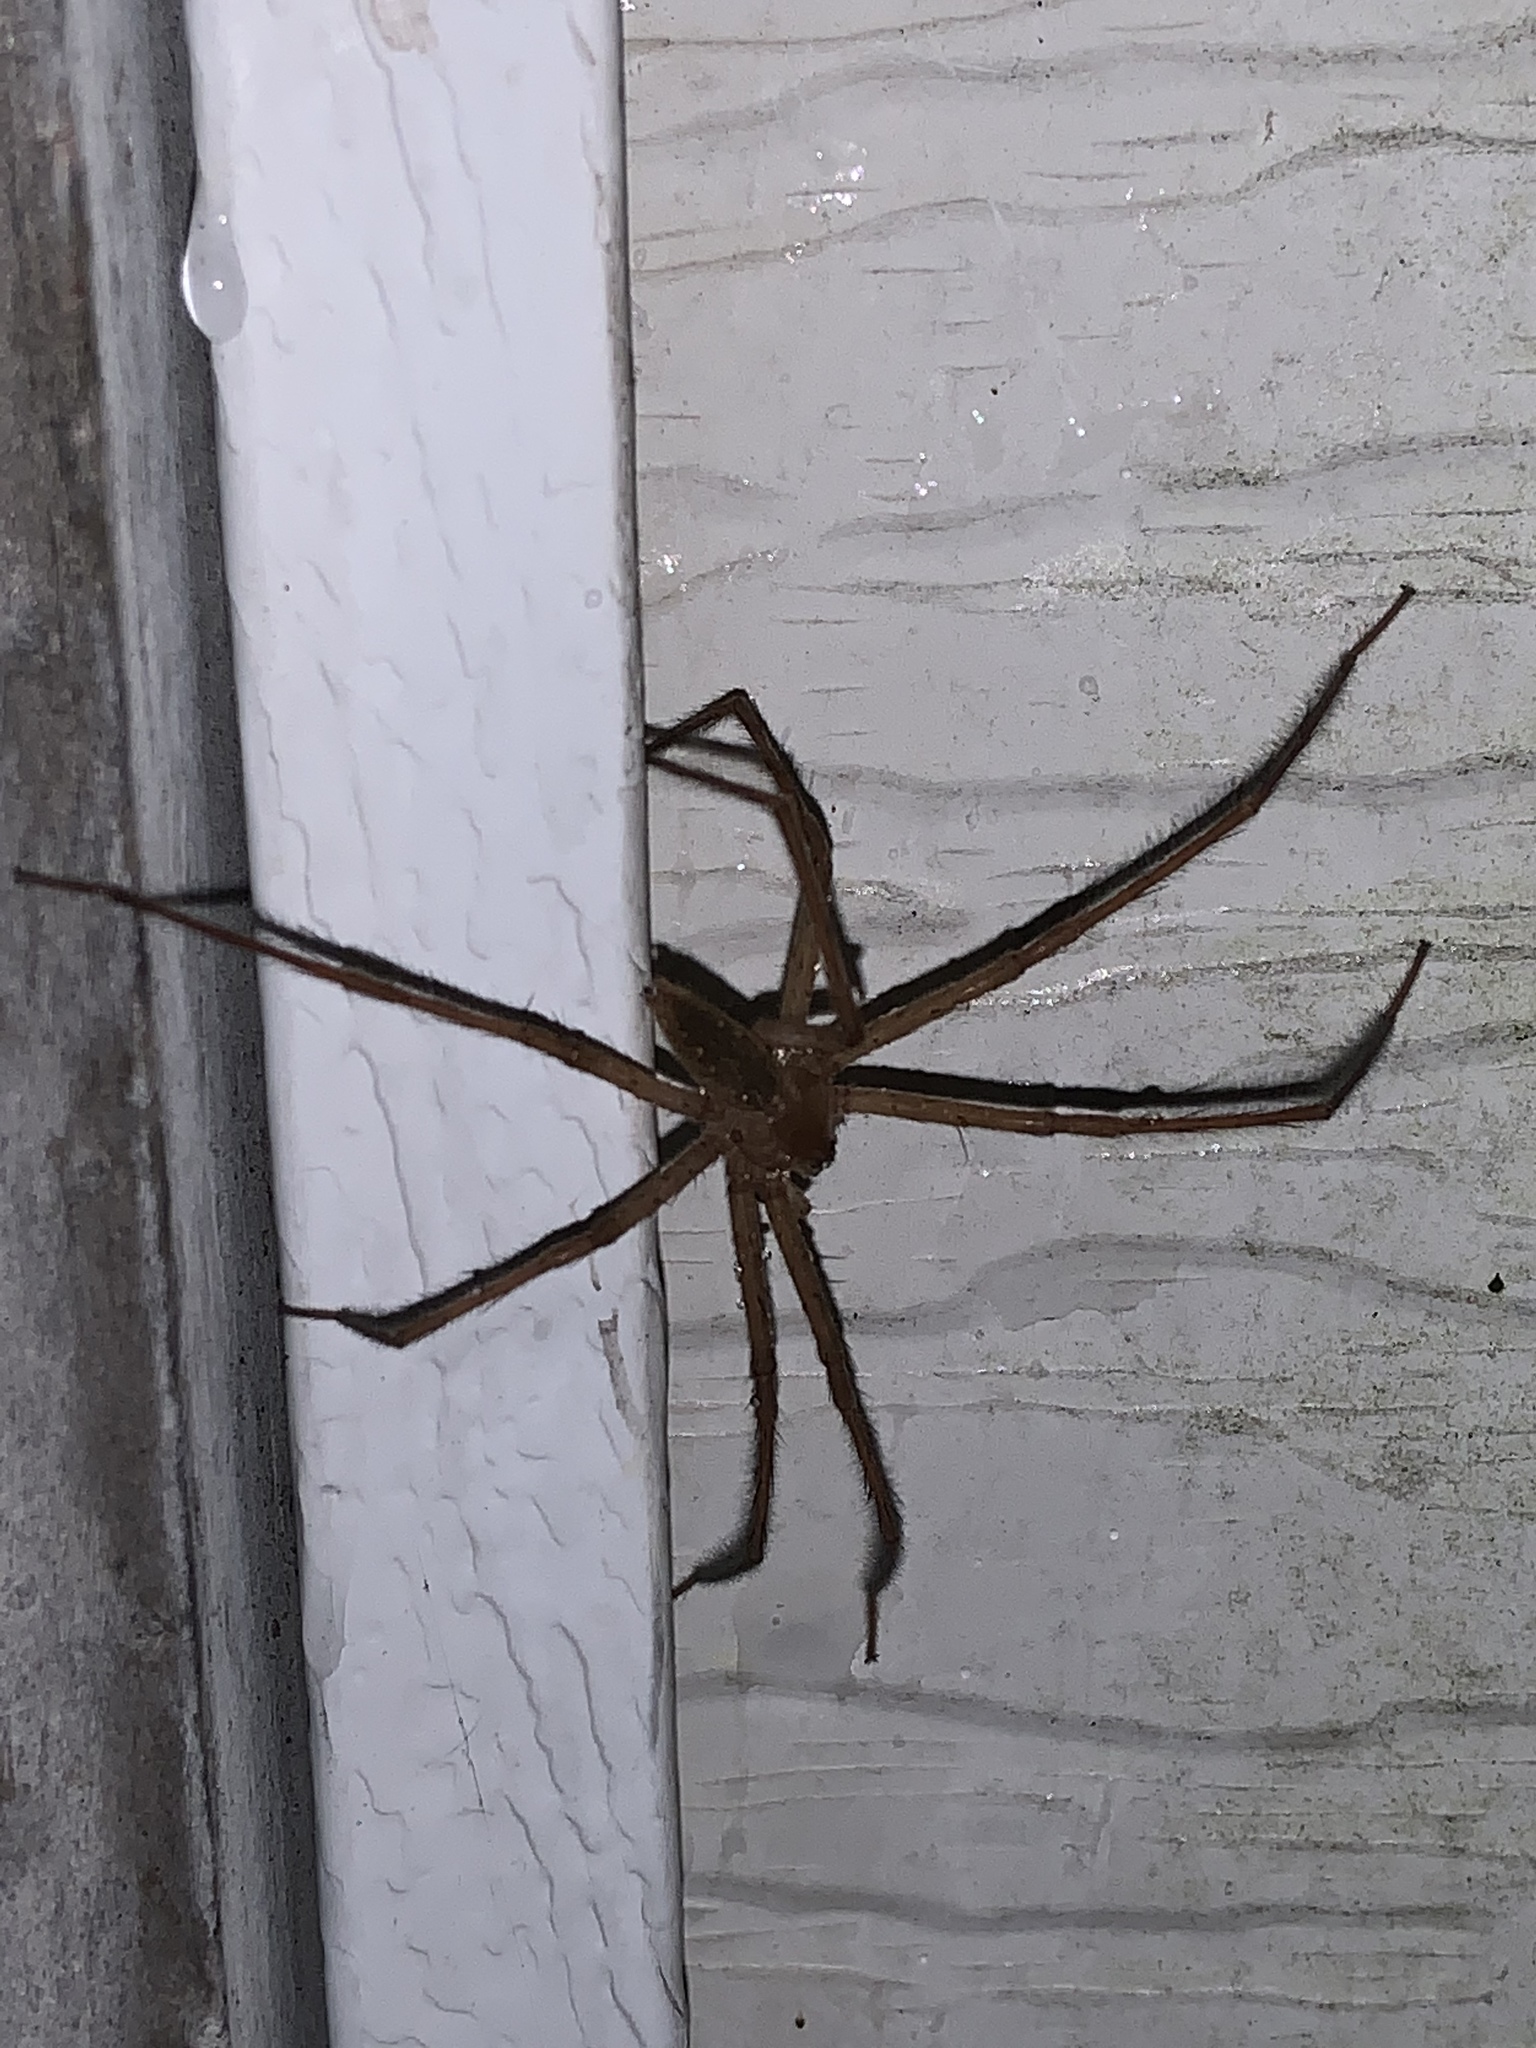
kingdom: Animalia
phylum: Arthropoda
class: Arachnida
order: Araneae
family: Pisauridae
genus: Pisaurina
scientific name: Pisaurina mira
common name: American nursery web spider
